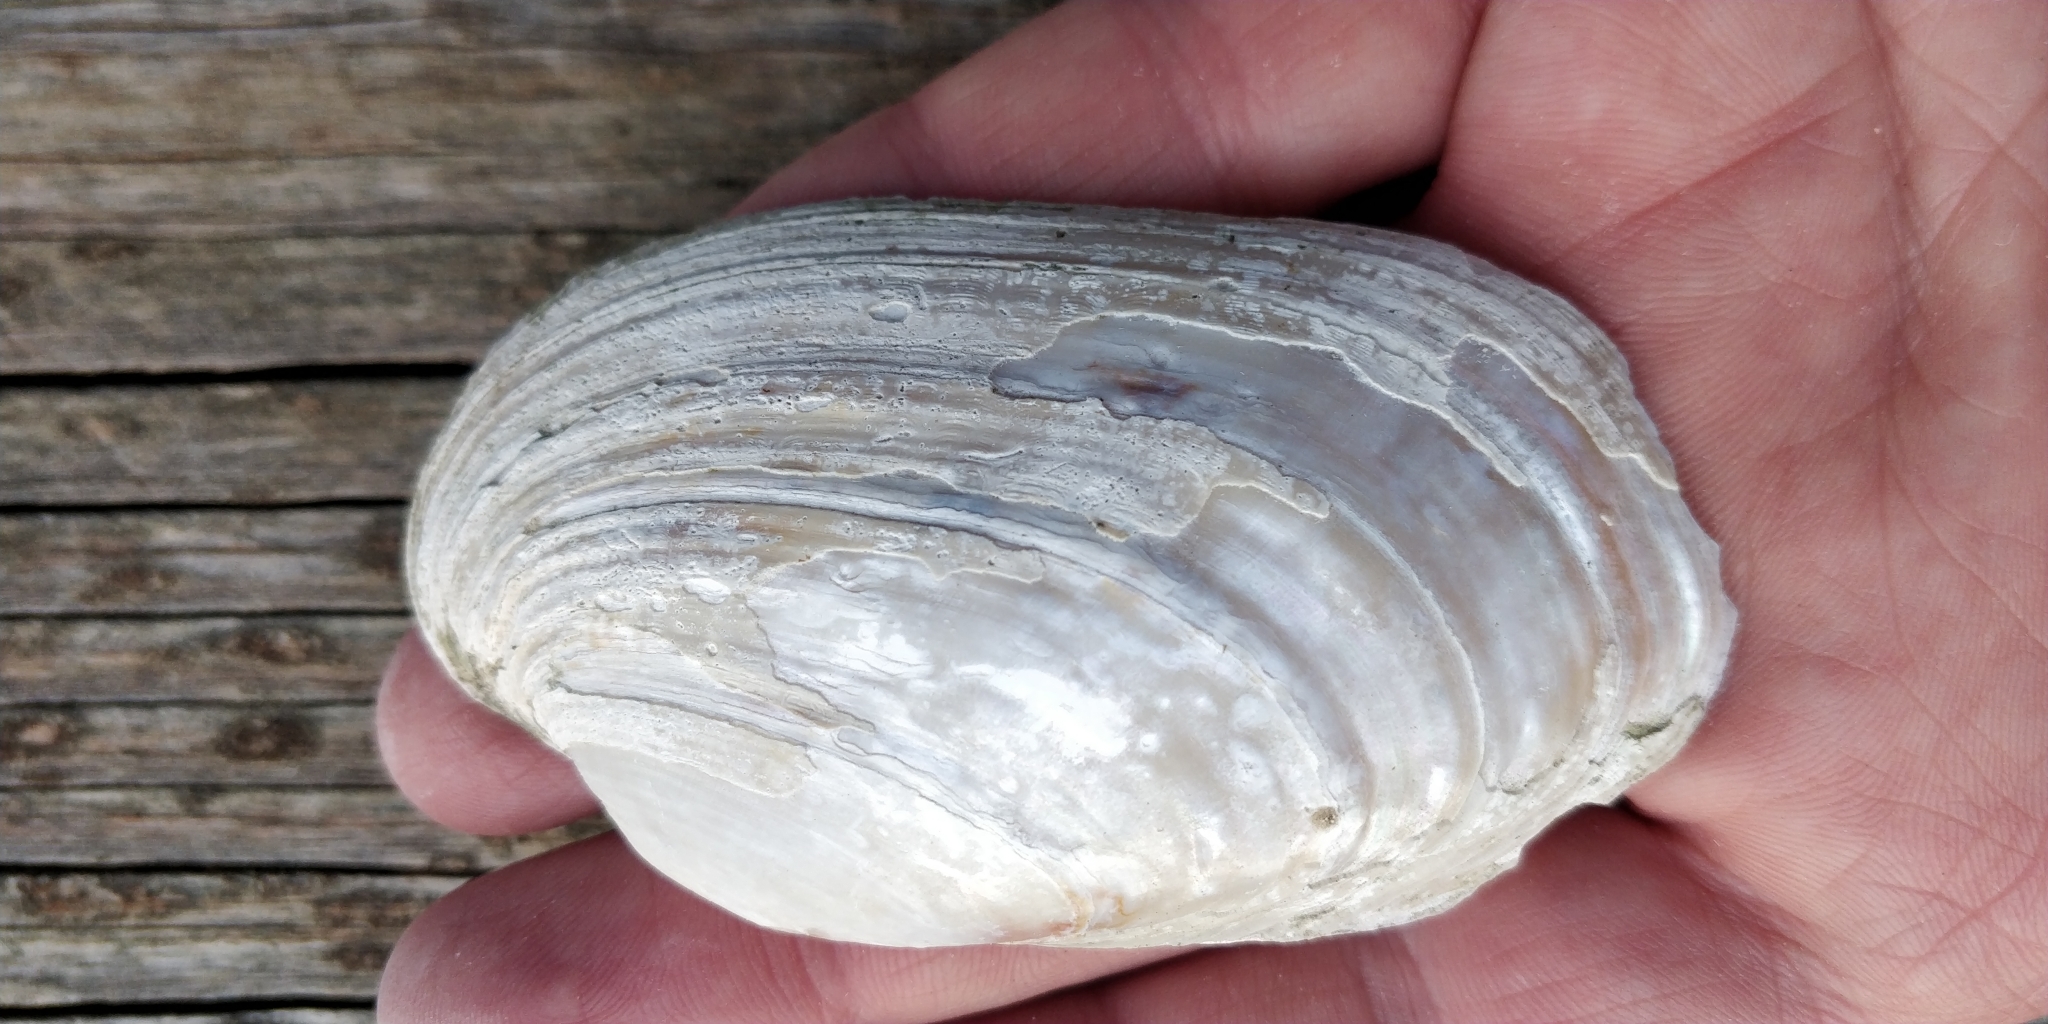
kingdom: Animalia
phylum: Mollusca
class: Bivalvia
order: Unionida
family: Unionidae
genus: Lampsilis
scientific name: Lampsilis siliquoidea
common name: Fatmucket
